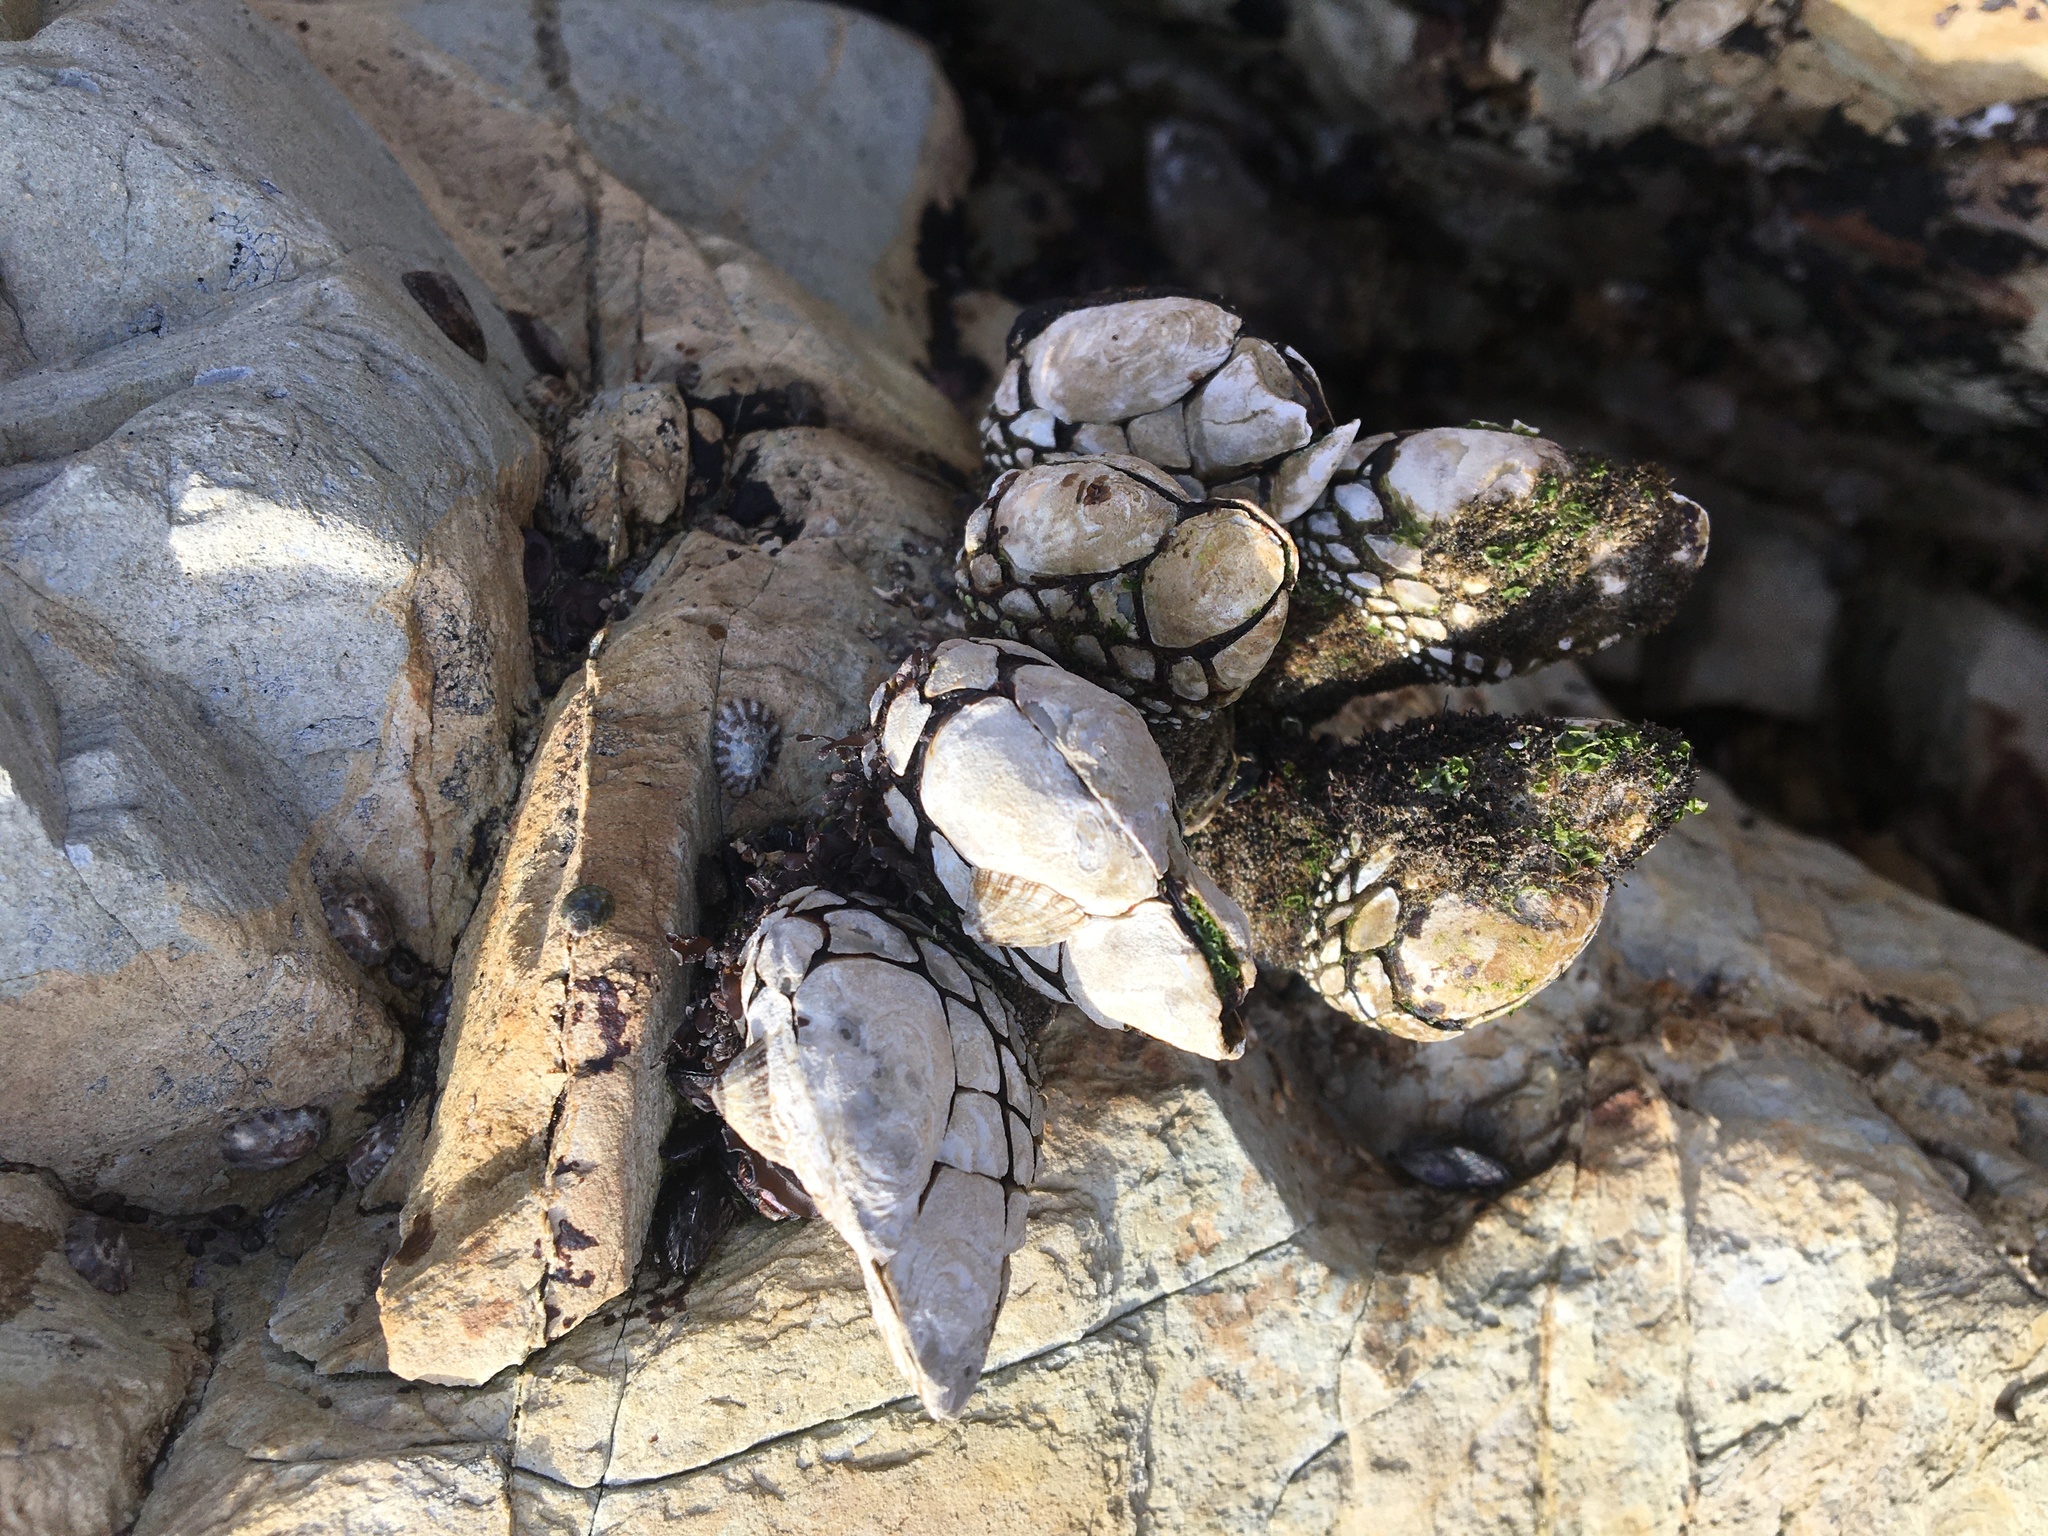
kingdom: Animalia
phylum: Arthropoda
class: Maxillopoda
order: Pedunculata
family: Pollicipedidae
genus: Pollicipes
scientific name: Pollicipes polymerus
